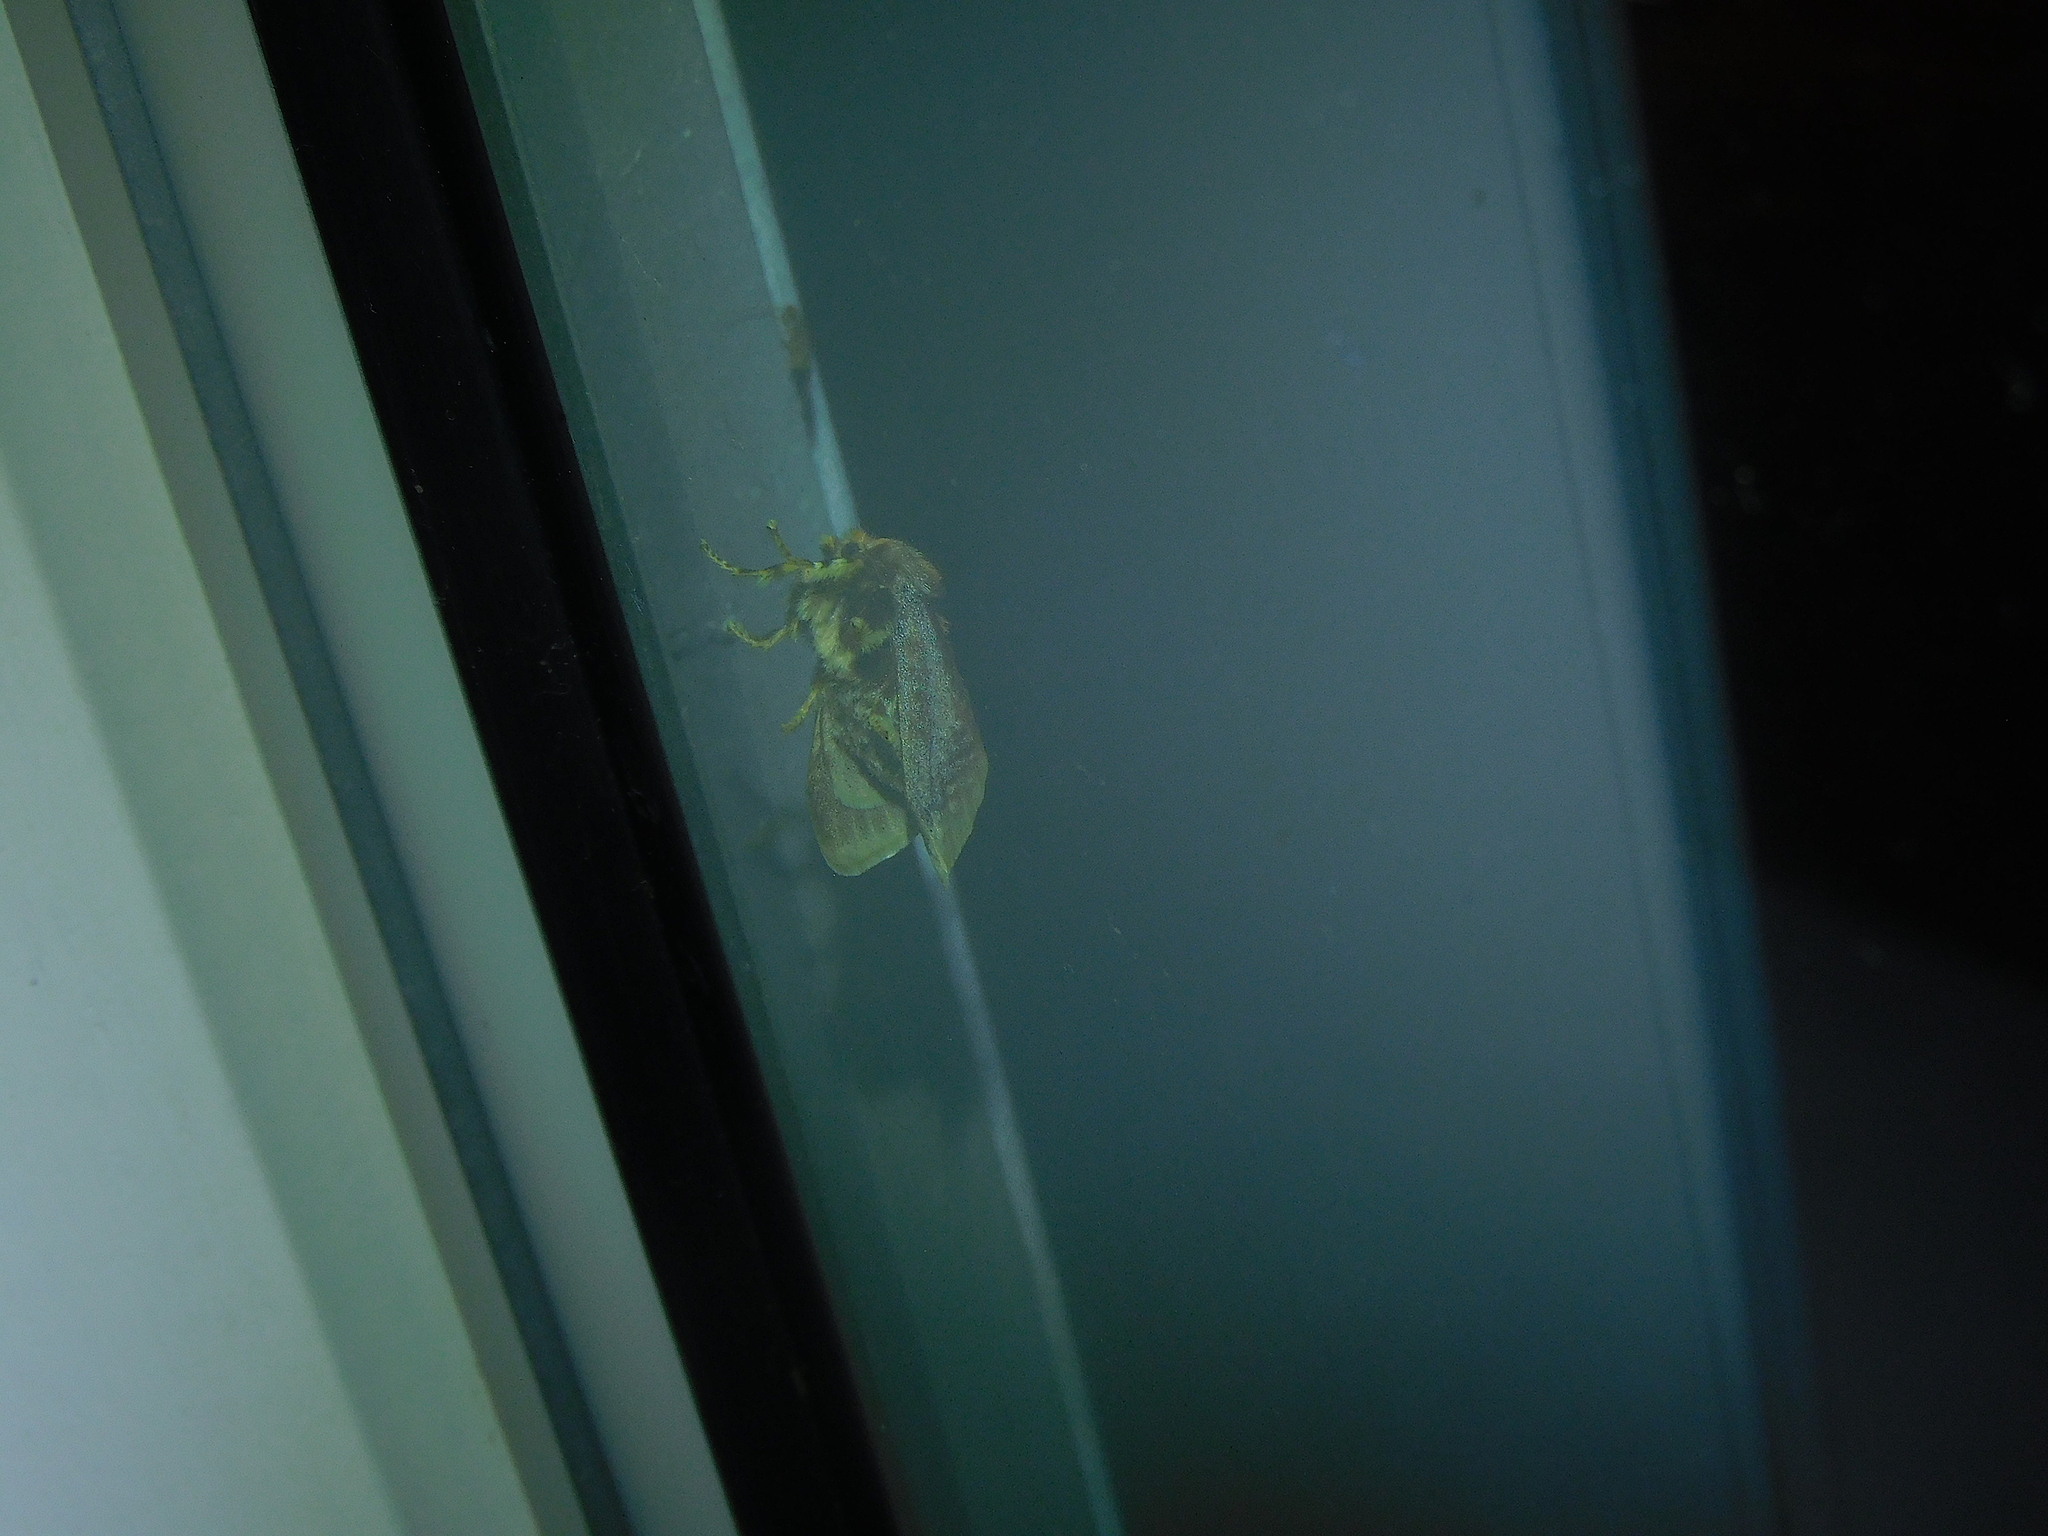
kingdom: Animalia
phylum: Arthropoda
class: Insecta
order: Lepidoptera
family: Limacodidae
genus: Doratifera
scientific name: Doratifera oxleyi
